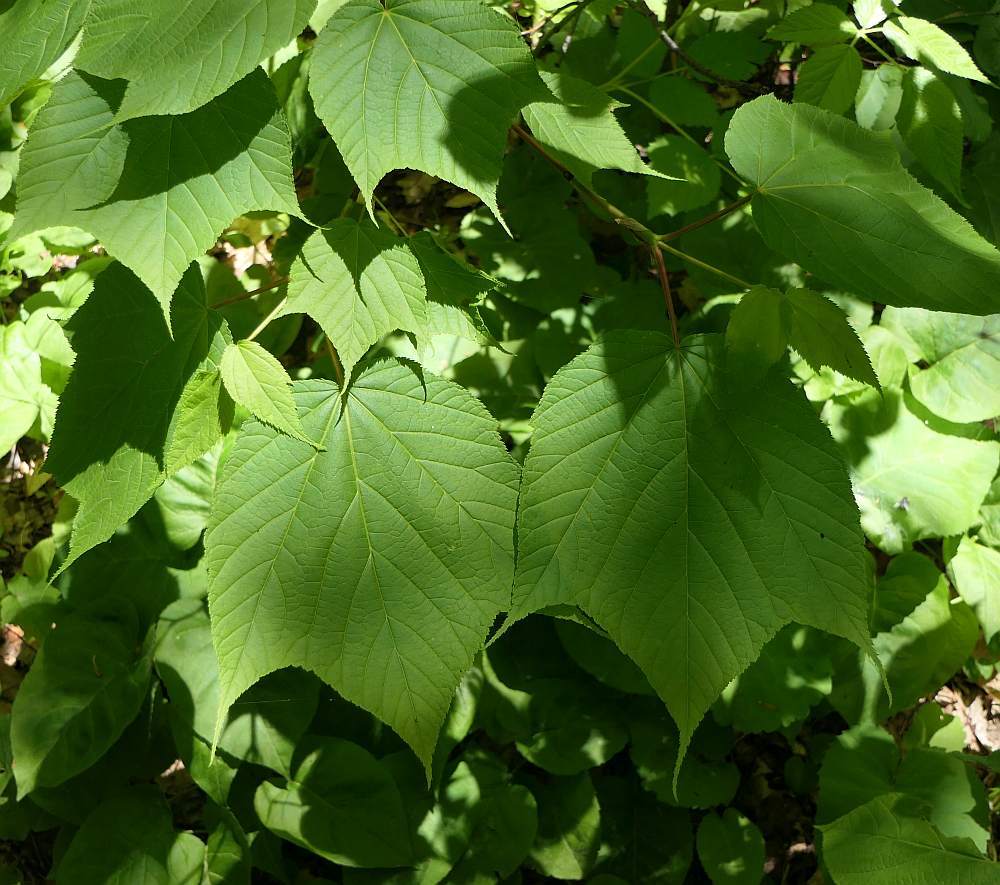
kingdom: Plantae
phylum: Tracheophyta
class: Magnoliopsida
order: Sapindales
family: Sapindaceae
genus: Acer
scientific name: Acer pensylvanicum
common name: Moosewood
